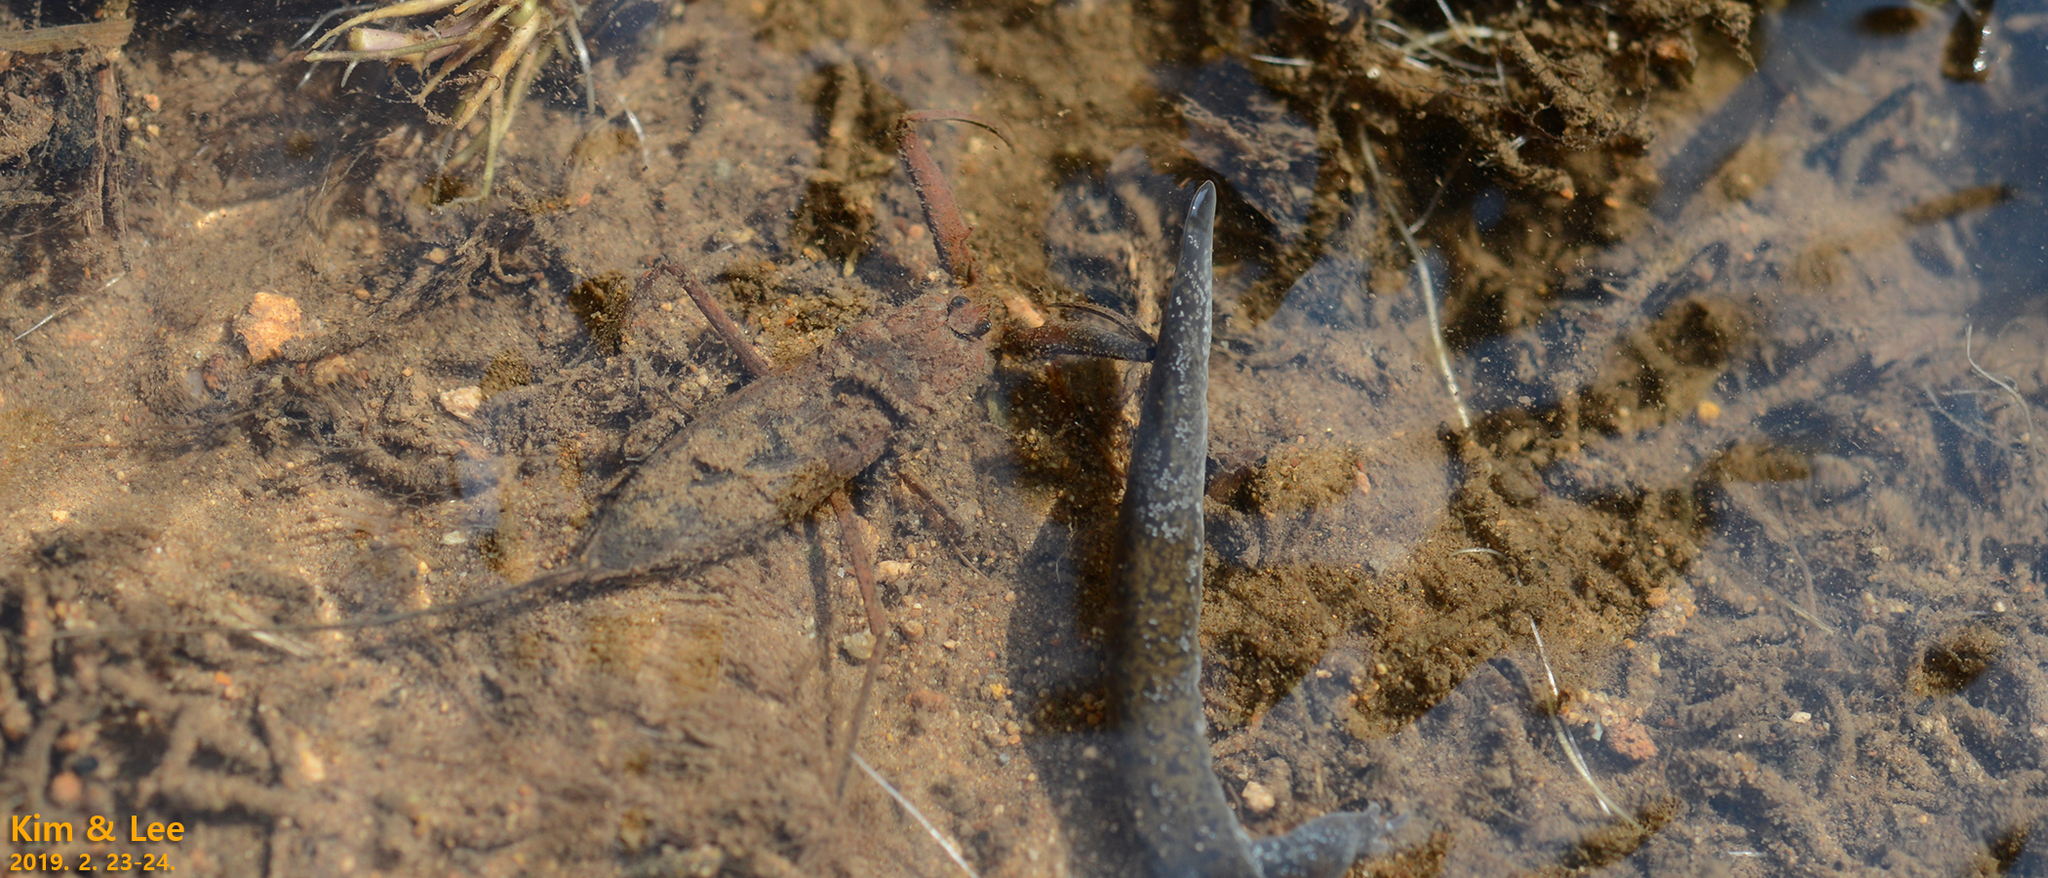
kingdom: Animalia
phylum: Arthropoda
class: Insecta
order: Hemiptera
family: Nepidae
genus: Laccotrephes
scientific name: Laccotrephes japonensis
